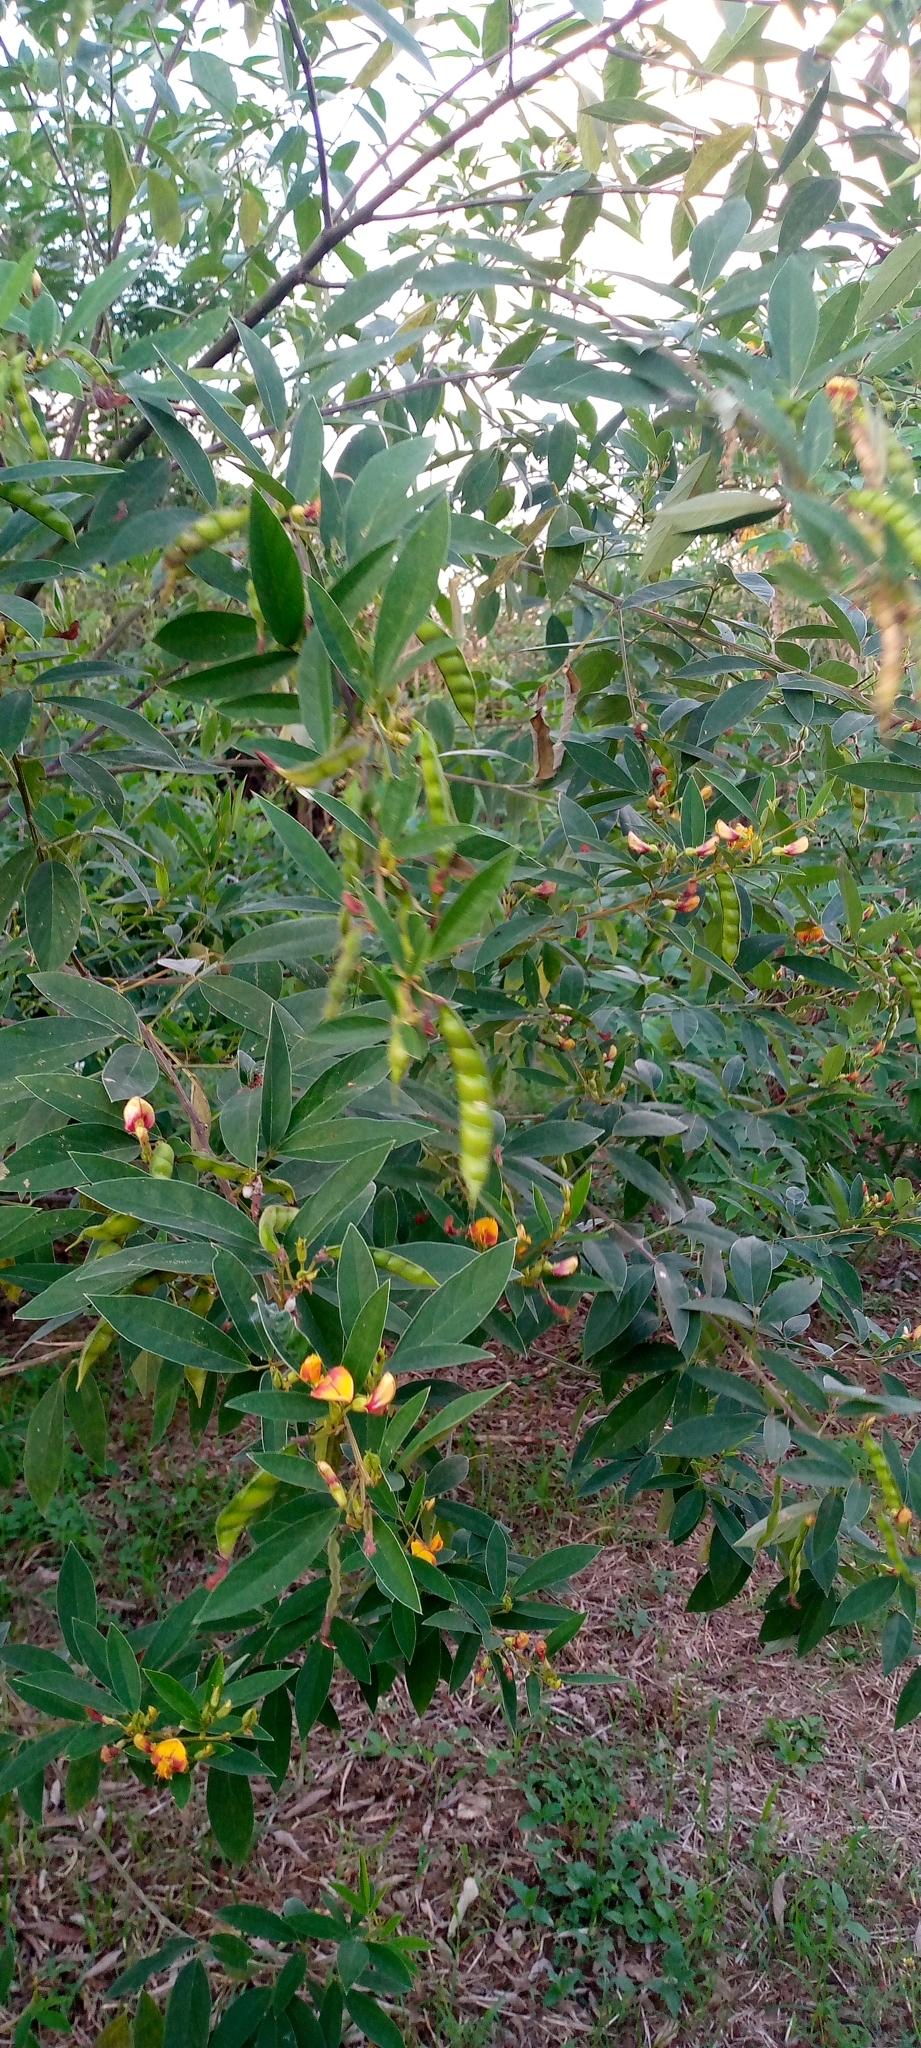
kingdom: Plantae
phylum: Tracheophyta
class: Magnoliopsida
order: Fabales
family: Fabaceae
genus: Cajanus
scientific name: Cajanus cajan
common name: Pigeonpea
